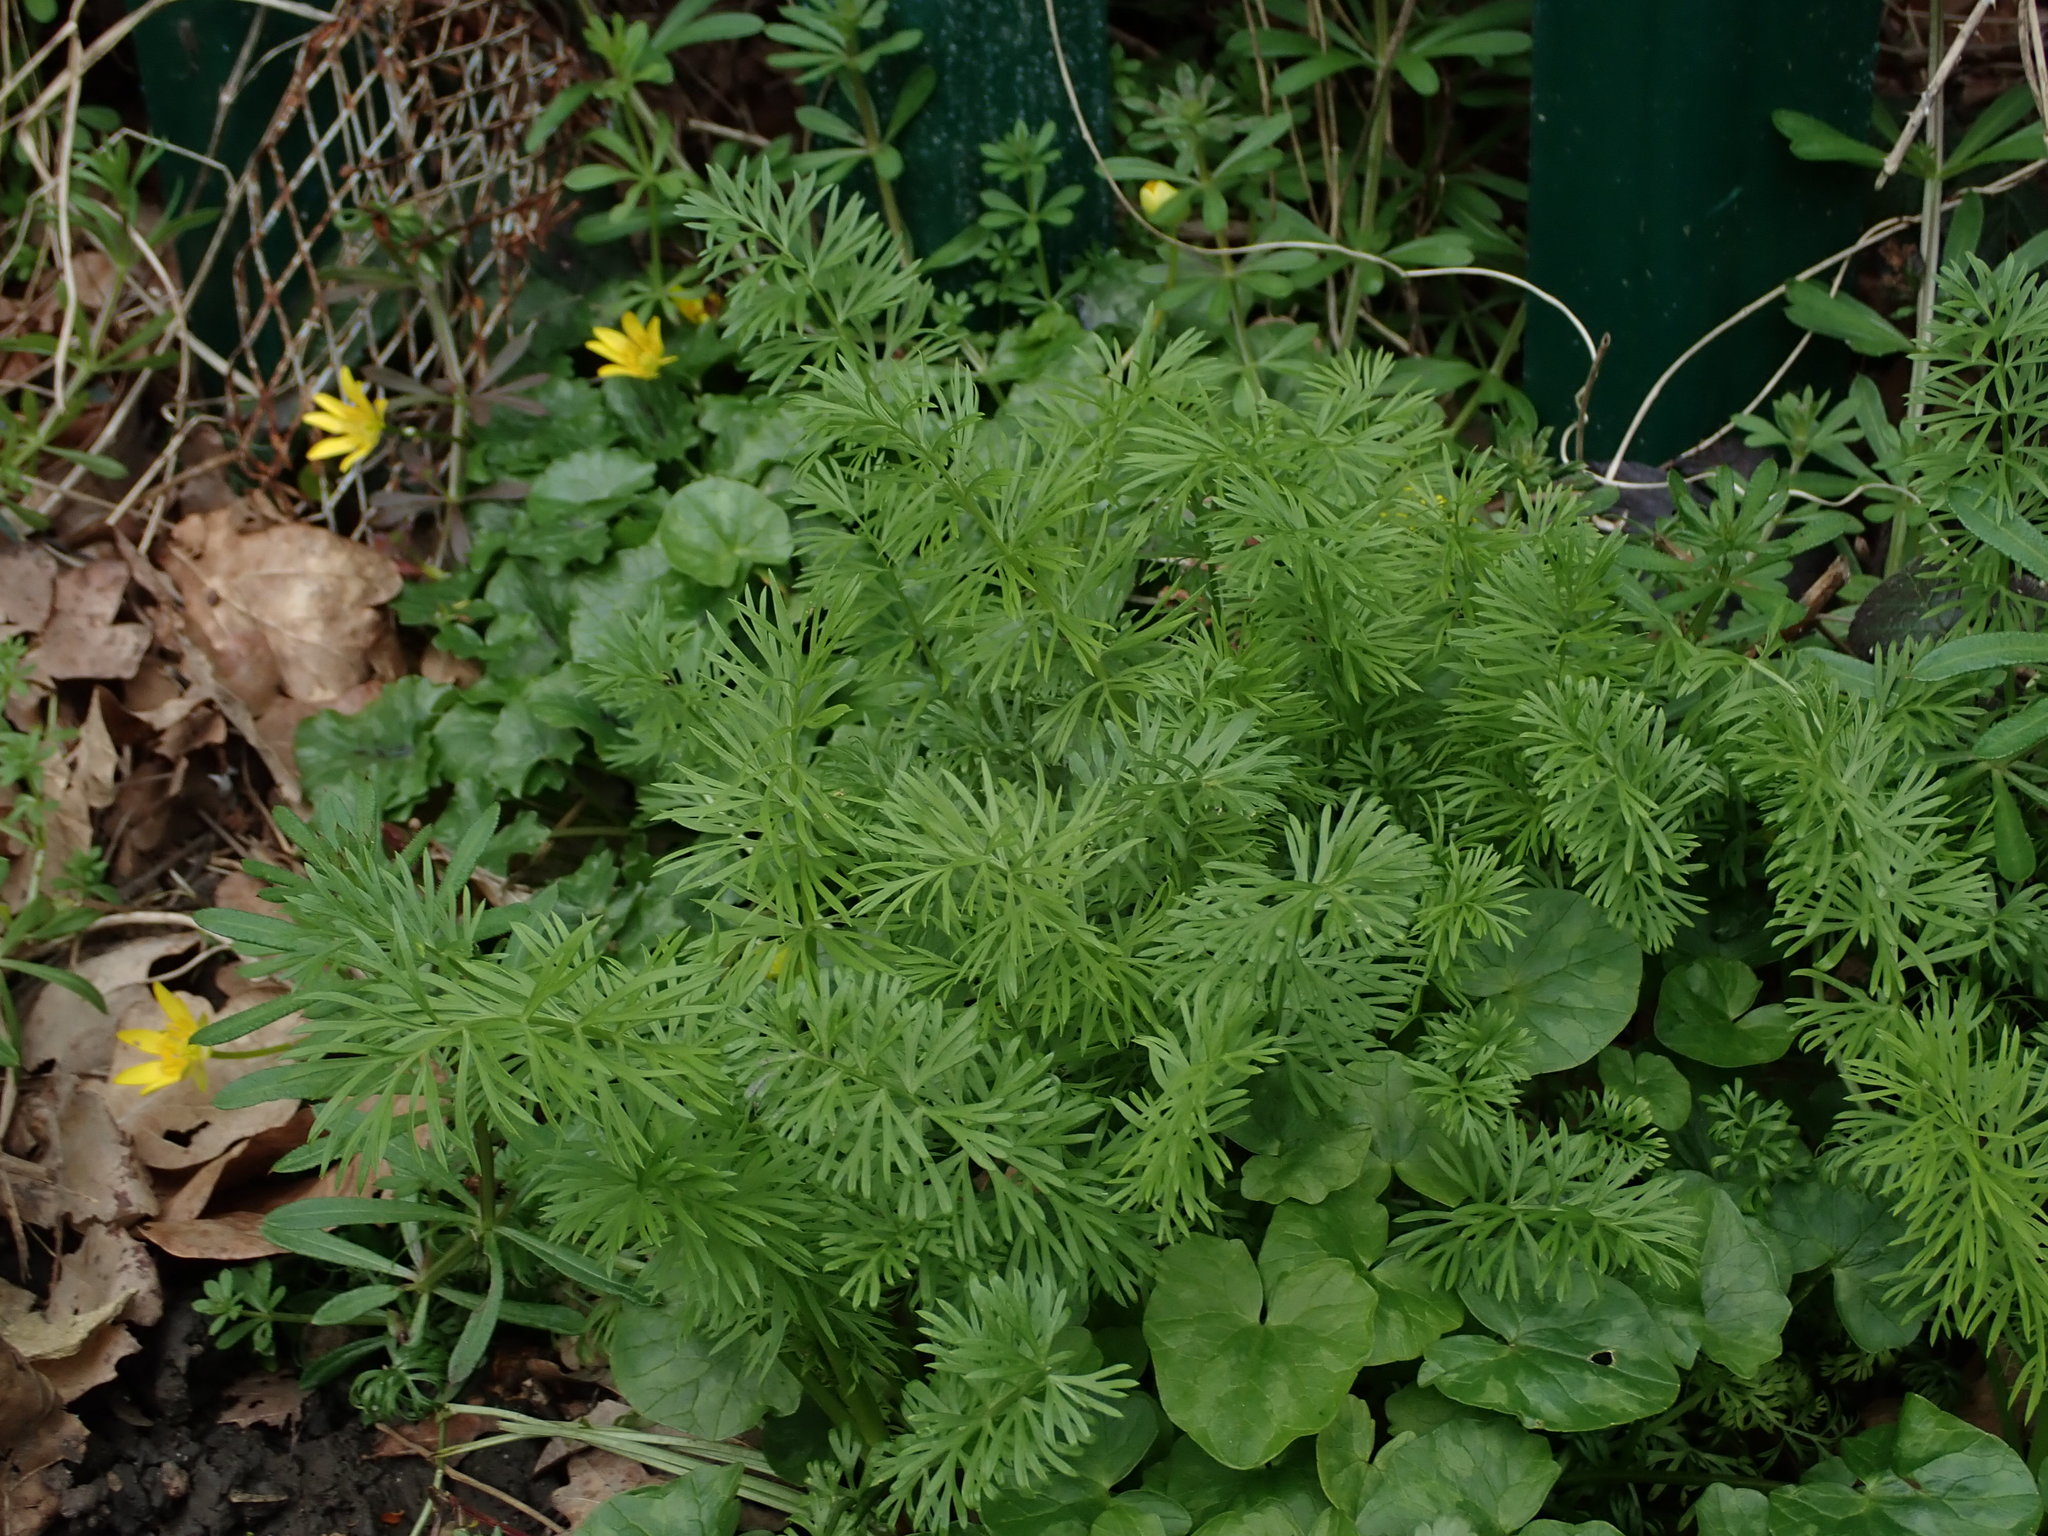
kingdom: Plantae
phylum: Tracheophyta
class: Magnoliopsida
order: Ranunculales
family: Ranunculaceae
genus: Nigella
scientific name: Nigella damascena
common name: Love-in-a-mist
